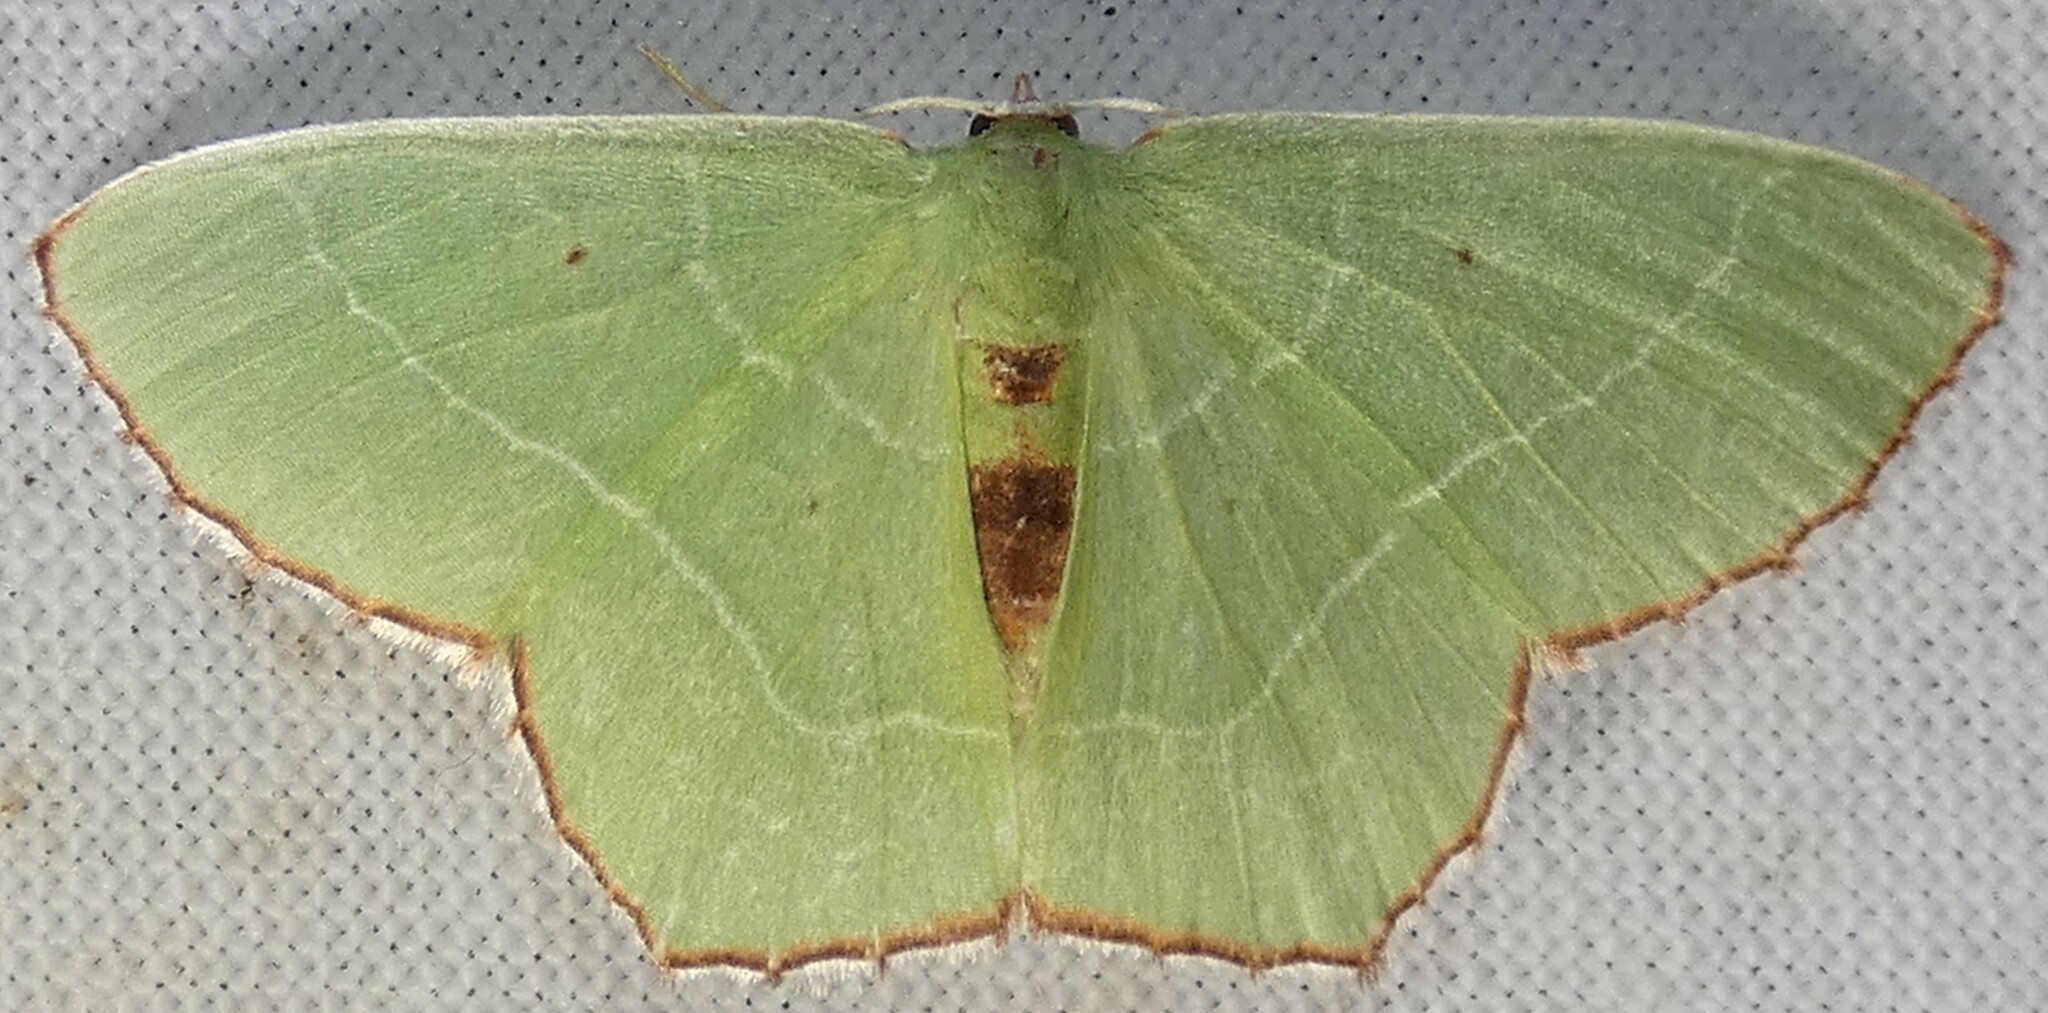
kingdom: Animalia
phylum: Arthropoda
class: Insecta
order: Lepidoptera
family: Geometridae
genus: Nemoria
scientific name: Nemoria saturiba
